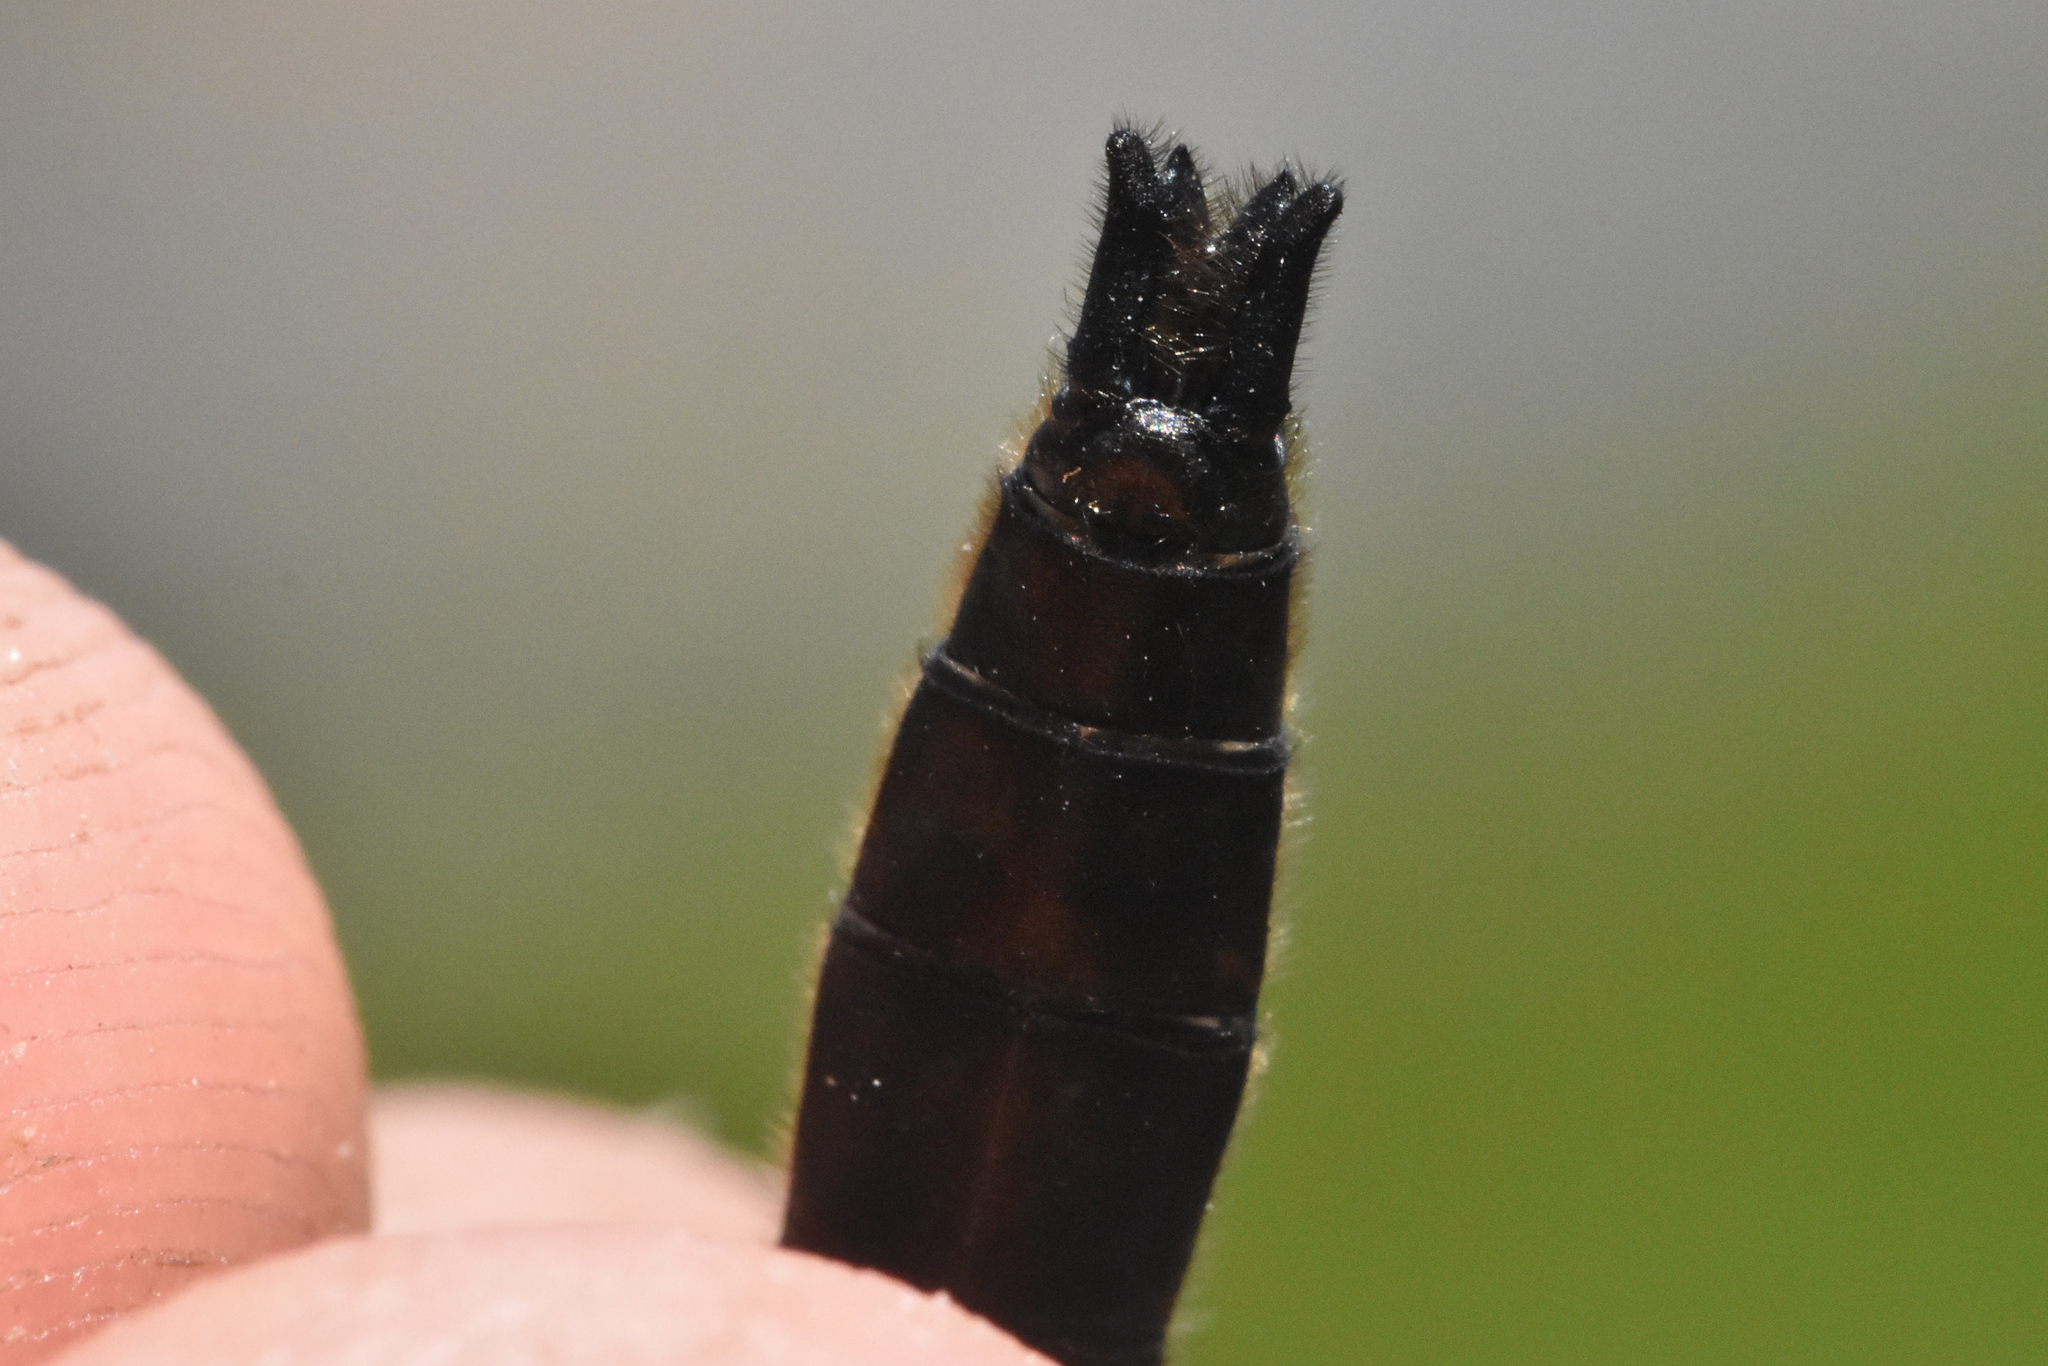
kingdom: Animalia
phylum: Arthropoda
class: Insecta
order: Odonata
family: Corduliidae
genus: Cordulia
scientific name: Cordulia shurtleffii
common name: American emerald
